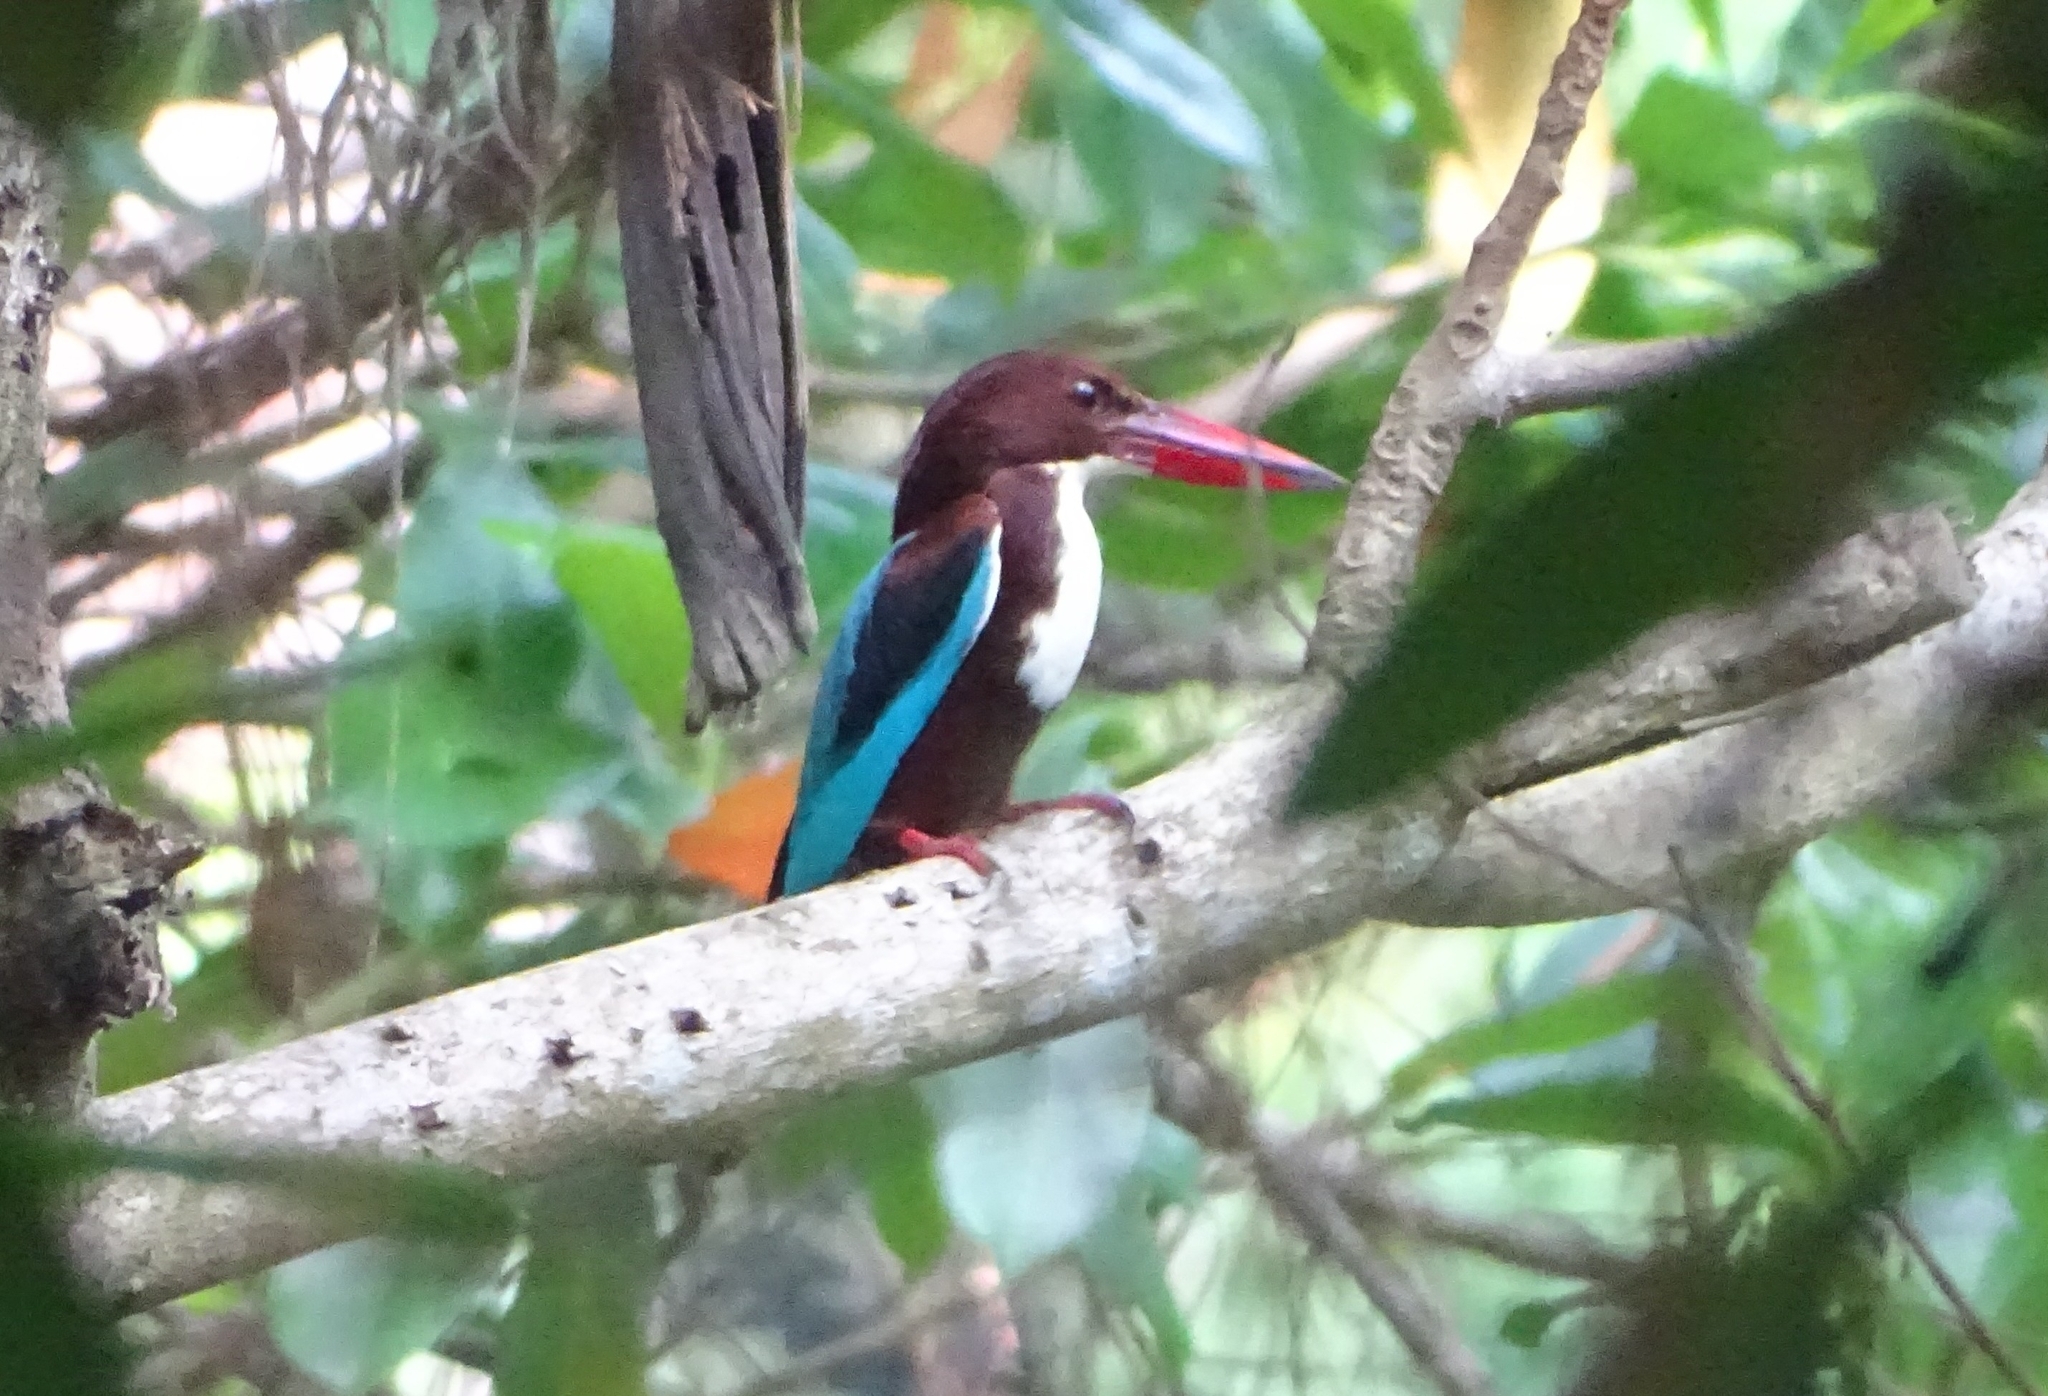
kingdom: Animalia
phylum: Chordata
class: Aves
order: Coraciiformes
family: Alcedinidae
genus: Halcyon
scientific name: Halcyon smyrnensis
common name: White-throated kingfisher
